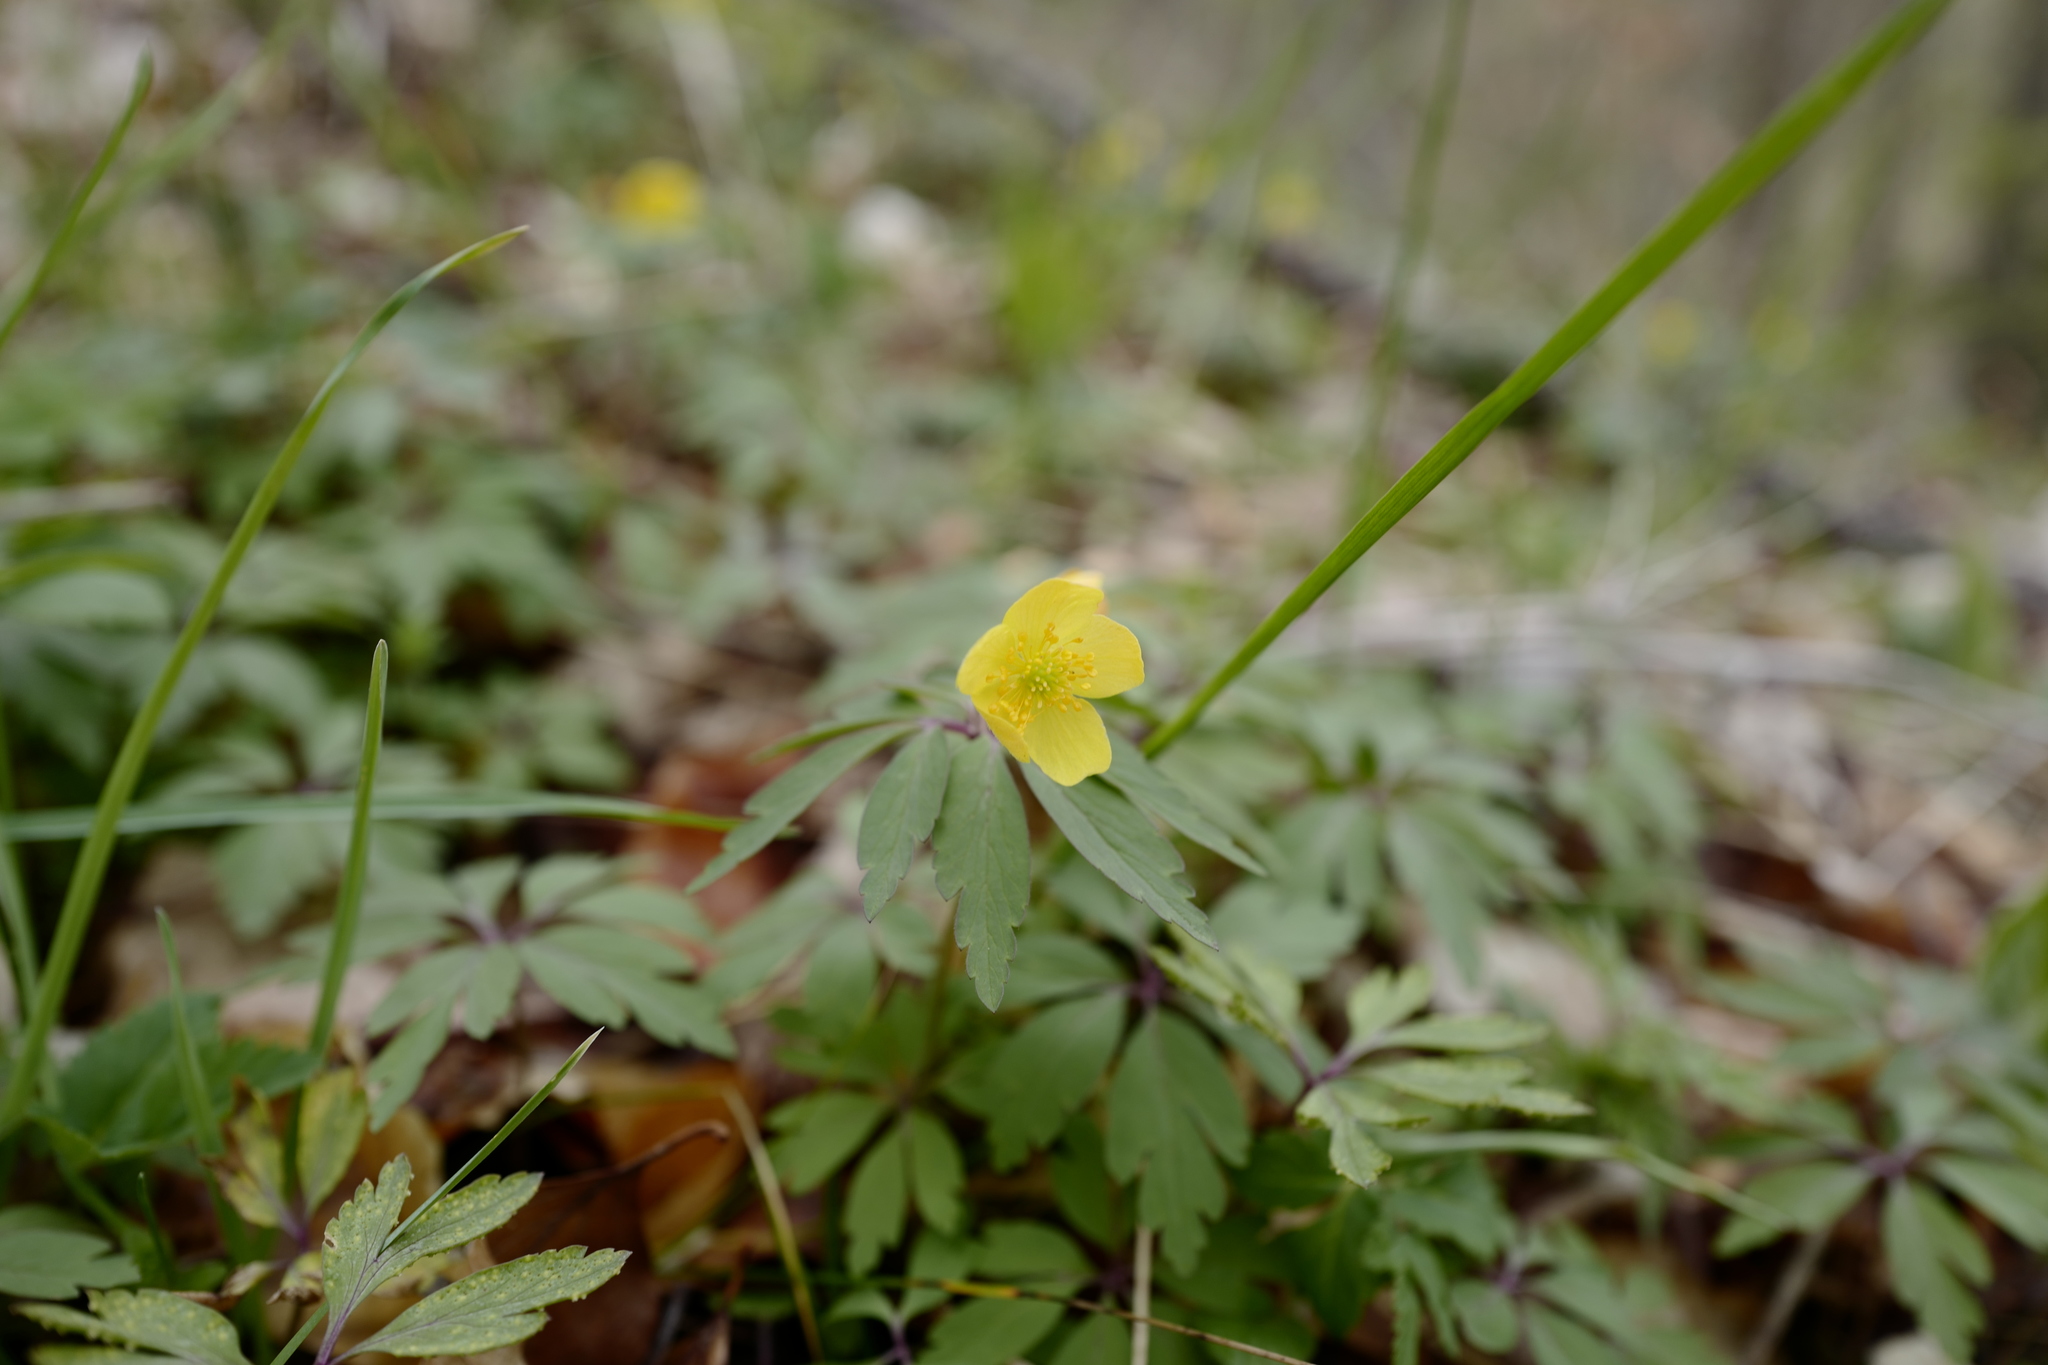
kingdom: Plantae
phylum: Tracheophyta
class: Magnoliopsida
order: Ranunculales
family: Ranunculaceae
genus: Anemone
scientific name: Anemone ranunculoides
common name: Yellow anemone
